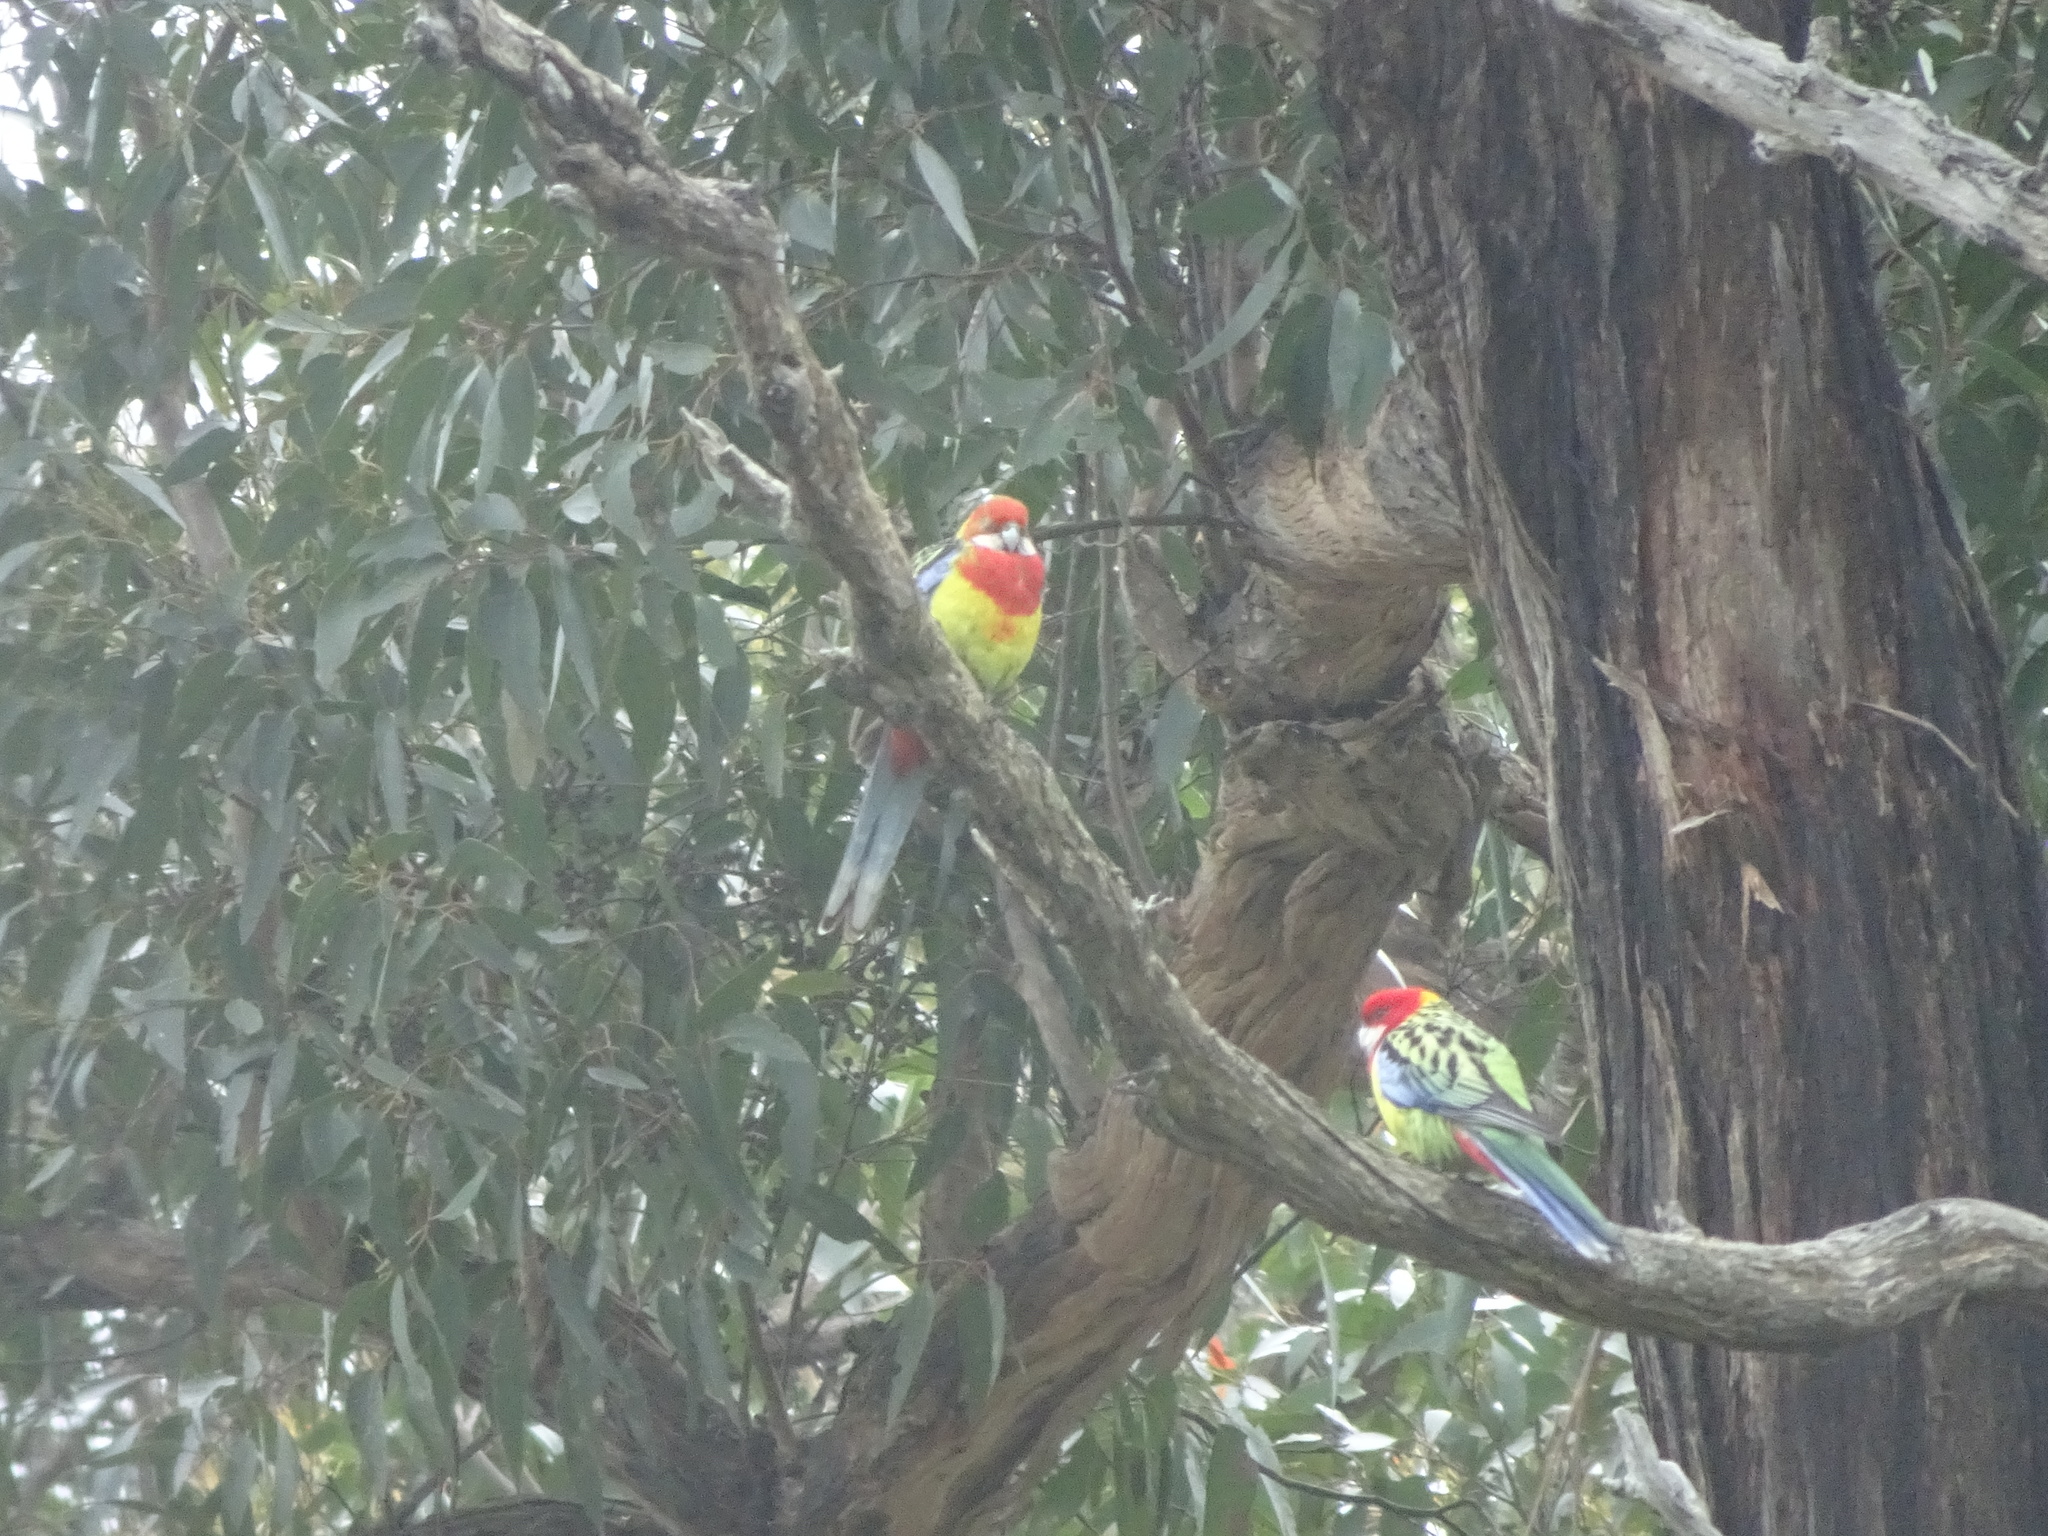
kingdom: Animalia
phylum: Chordata
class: Aves
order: Psittaciformes
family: Psittacidae
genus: Platycercus
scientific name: Platycercus eximius
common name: Eastern rosella
